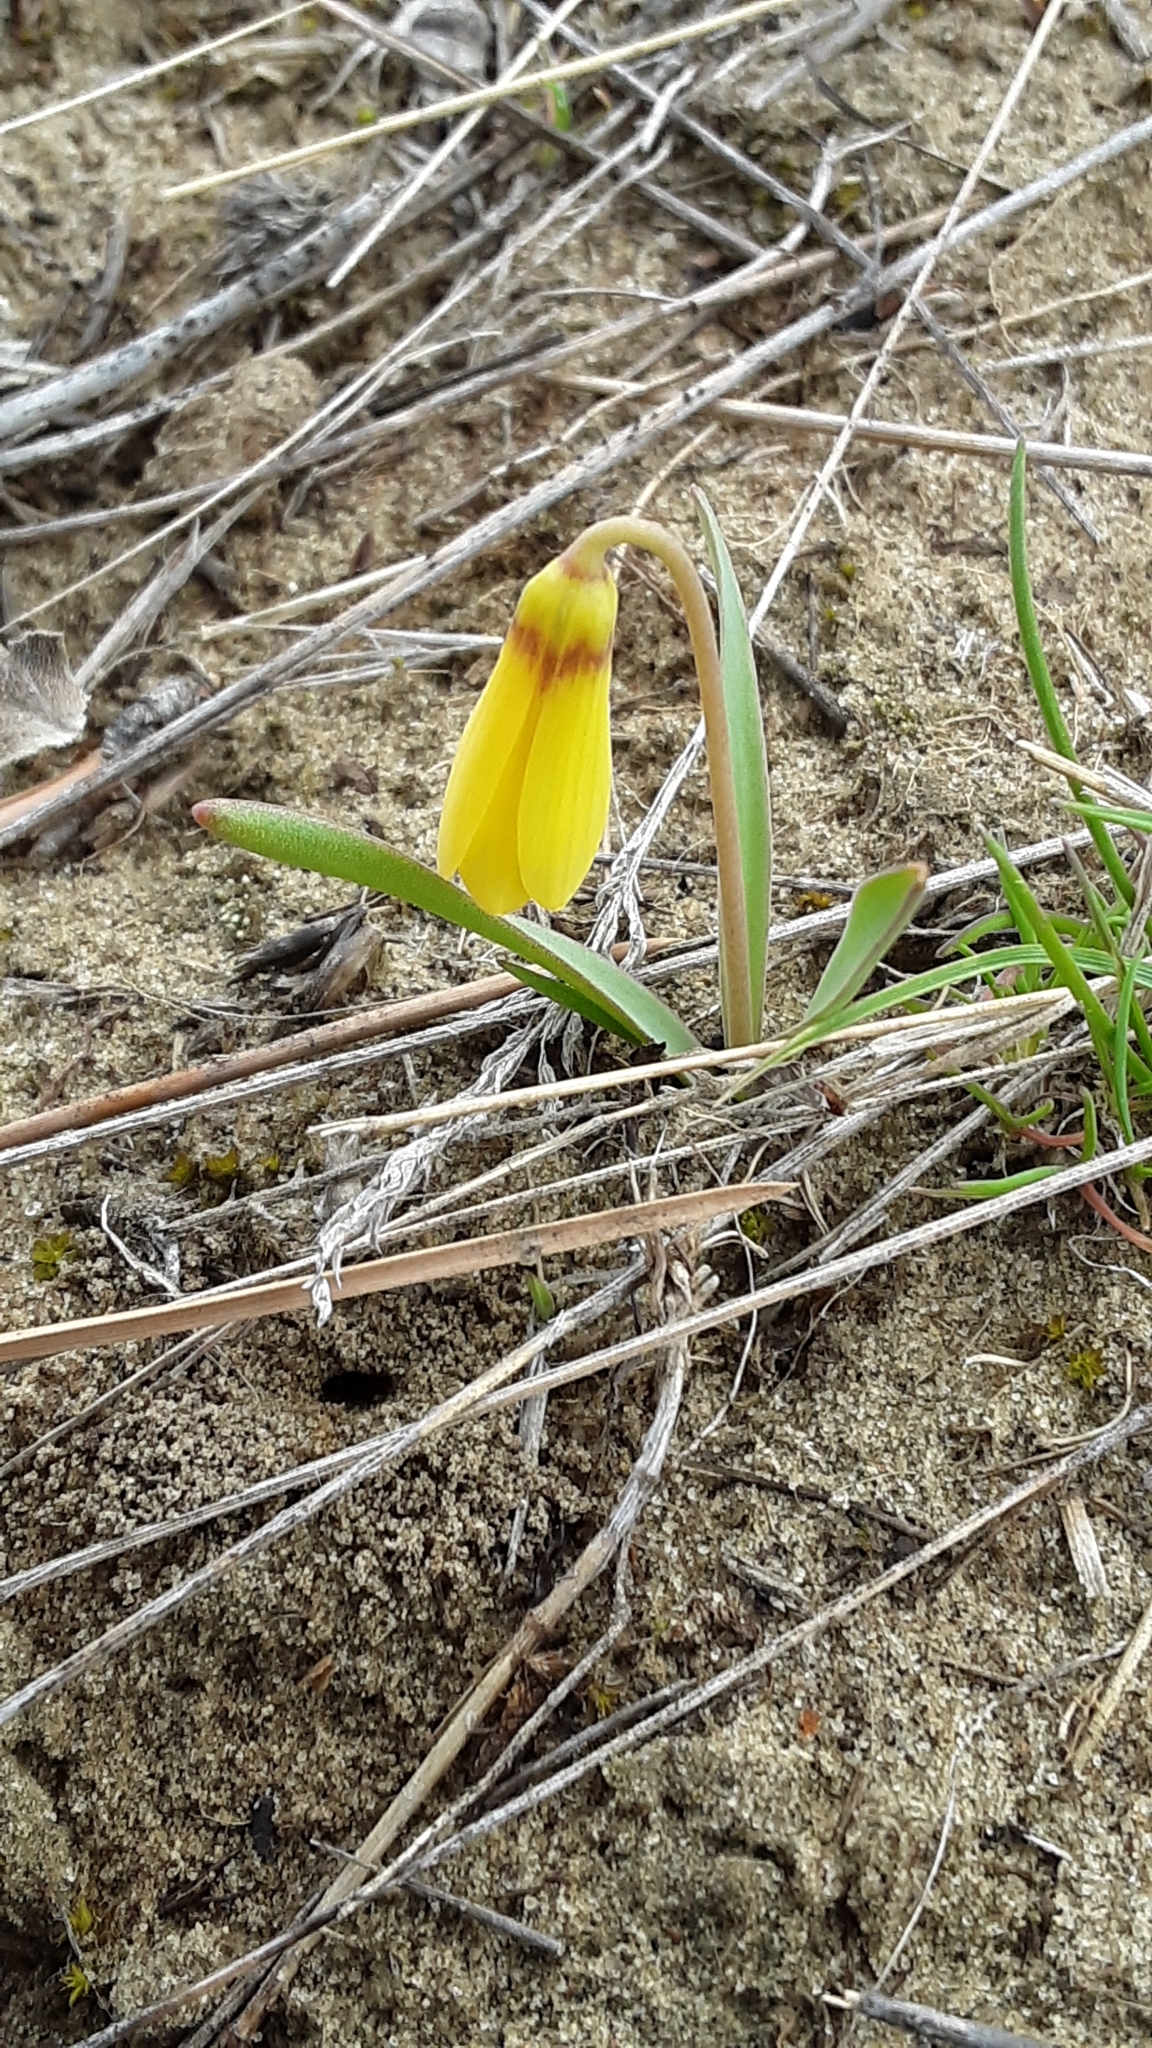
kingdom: Plantae
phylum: Tracheophyta
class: Liliopsida
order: Liliales
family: Liliaceae
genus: Fritillaria
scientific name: Fritillaria pudica
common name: Yellow fritillary
